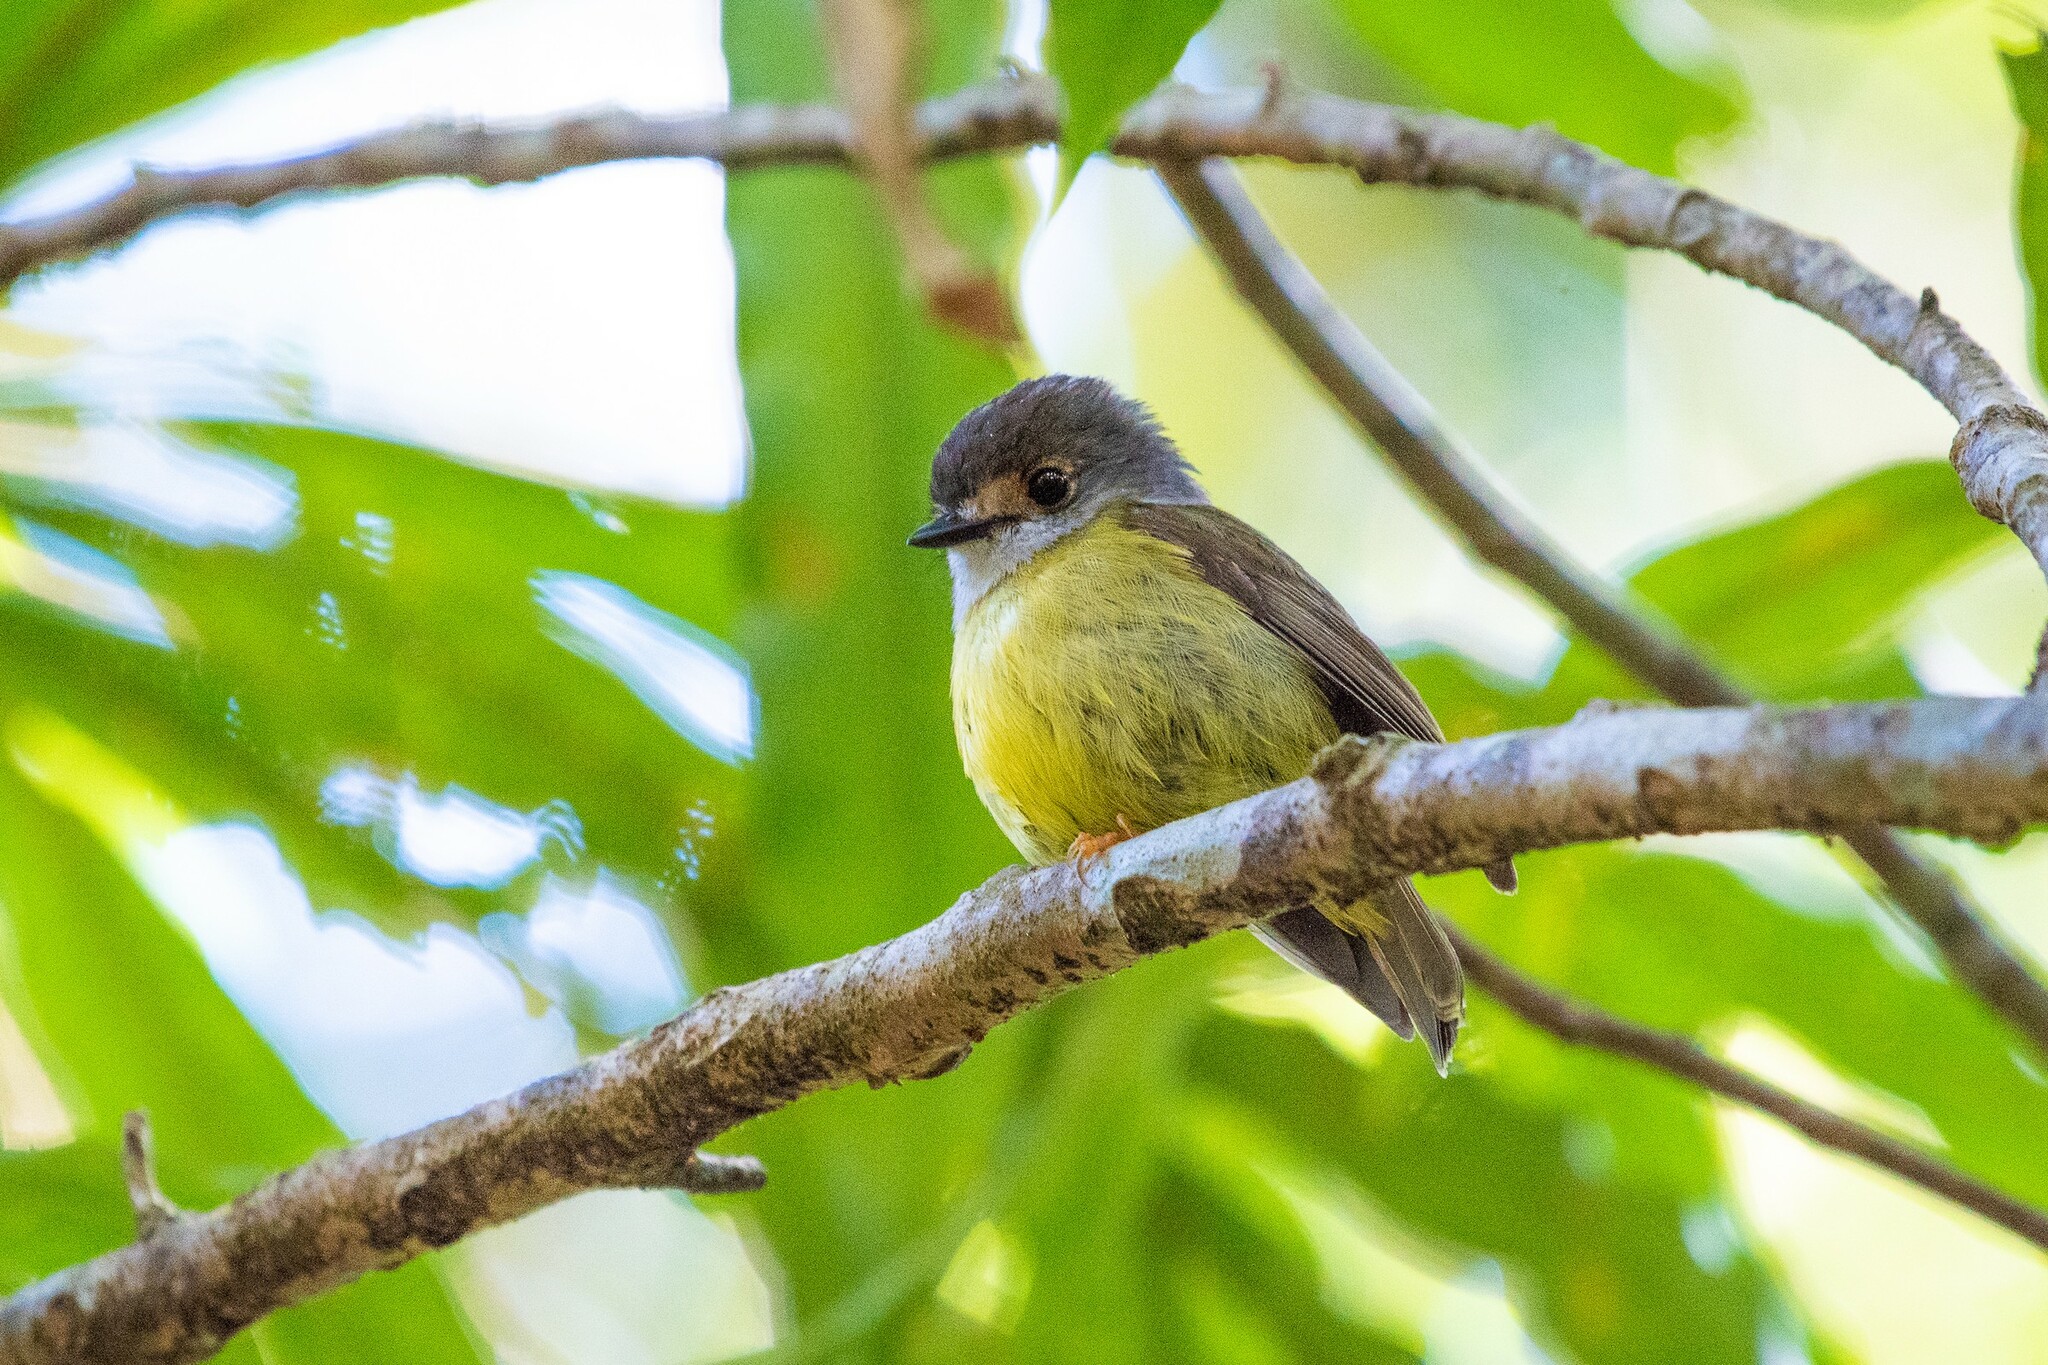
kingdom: Animalia
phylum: Chordata
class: Aves
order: Passeriformes
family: Petroicidae
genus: Eopsaltria
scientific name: Eopsaltria
